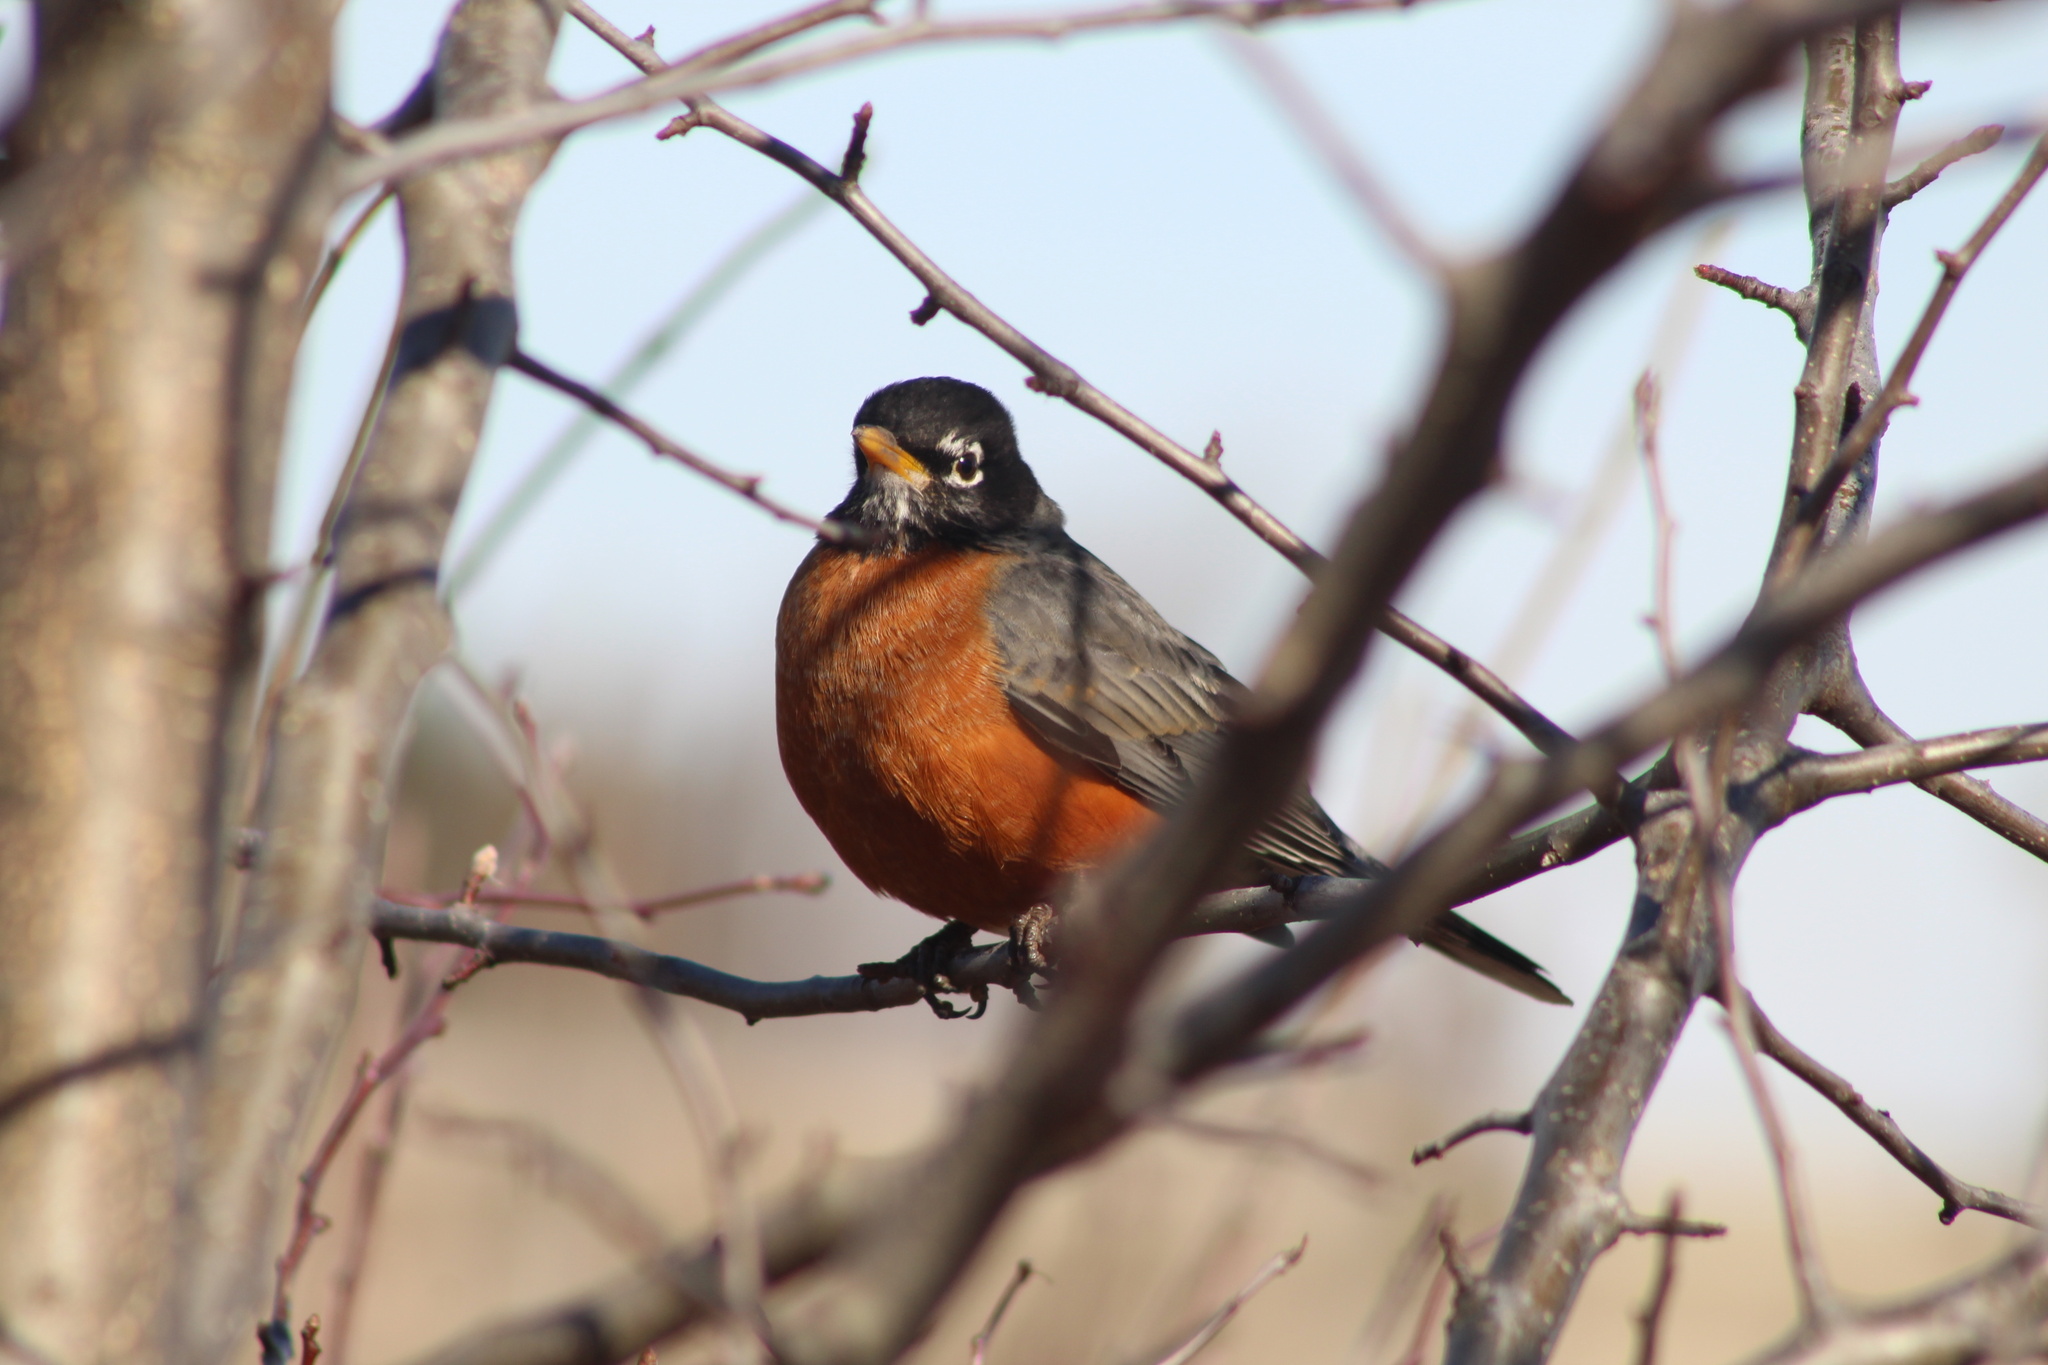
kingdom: Animalia
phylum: Chordata
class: Aves
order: Passeriformes
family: Turdidae
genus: Turdus
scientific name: Turdus migratorius
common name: American robin
